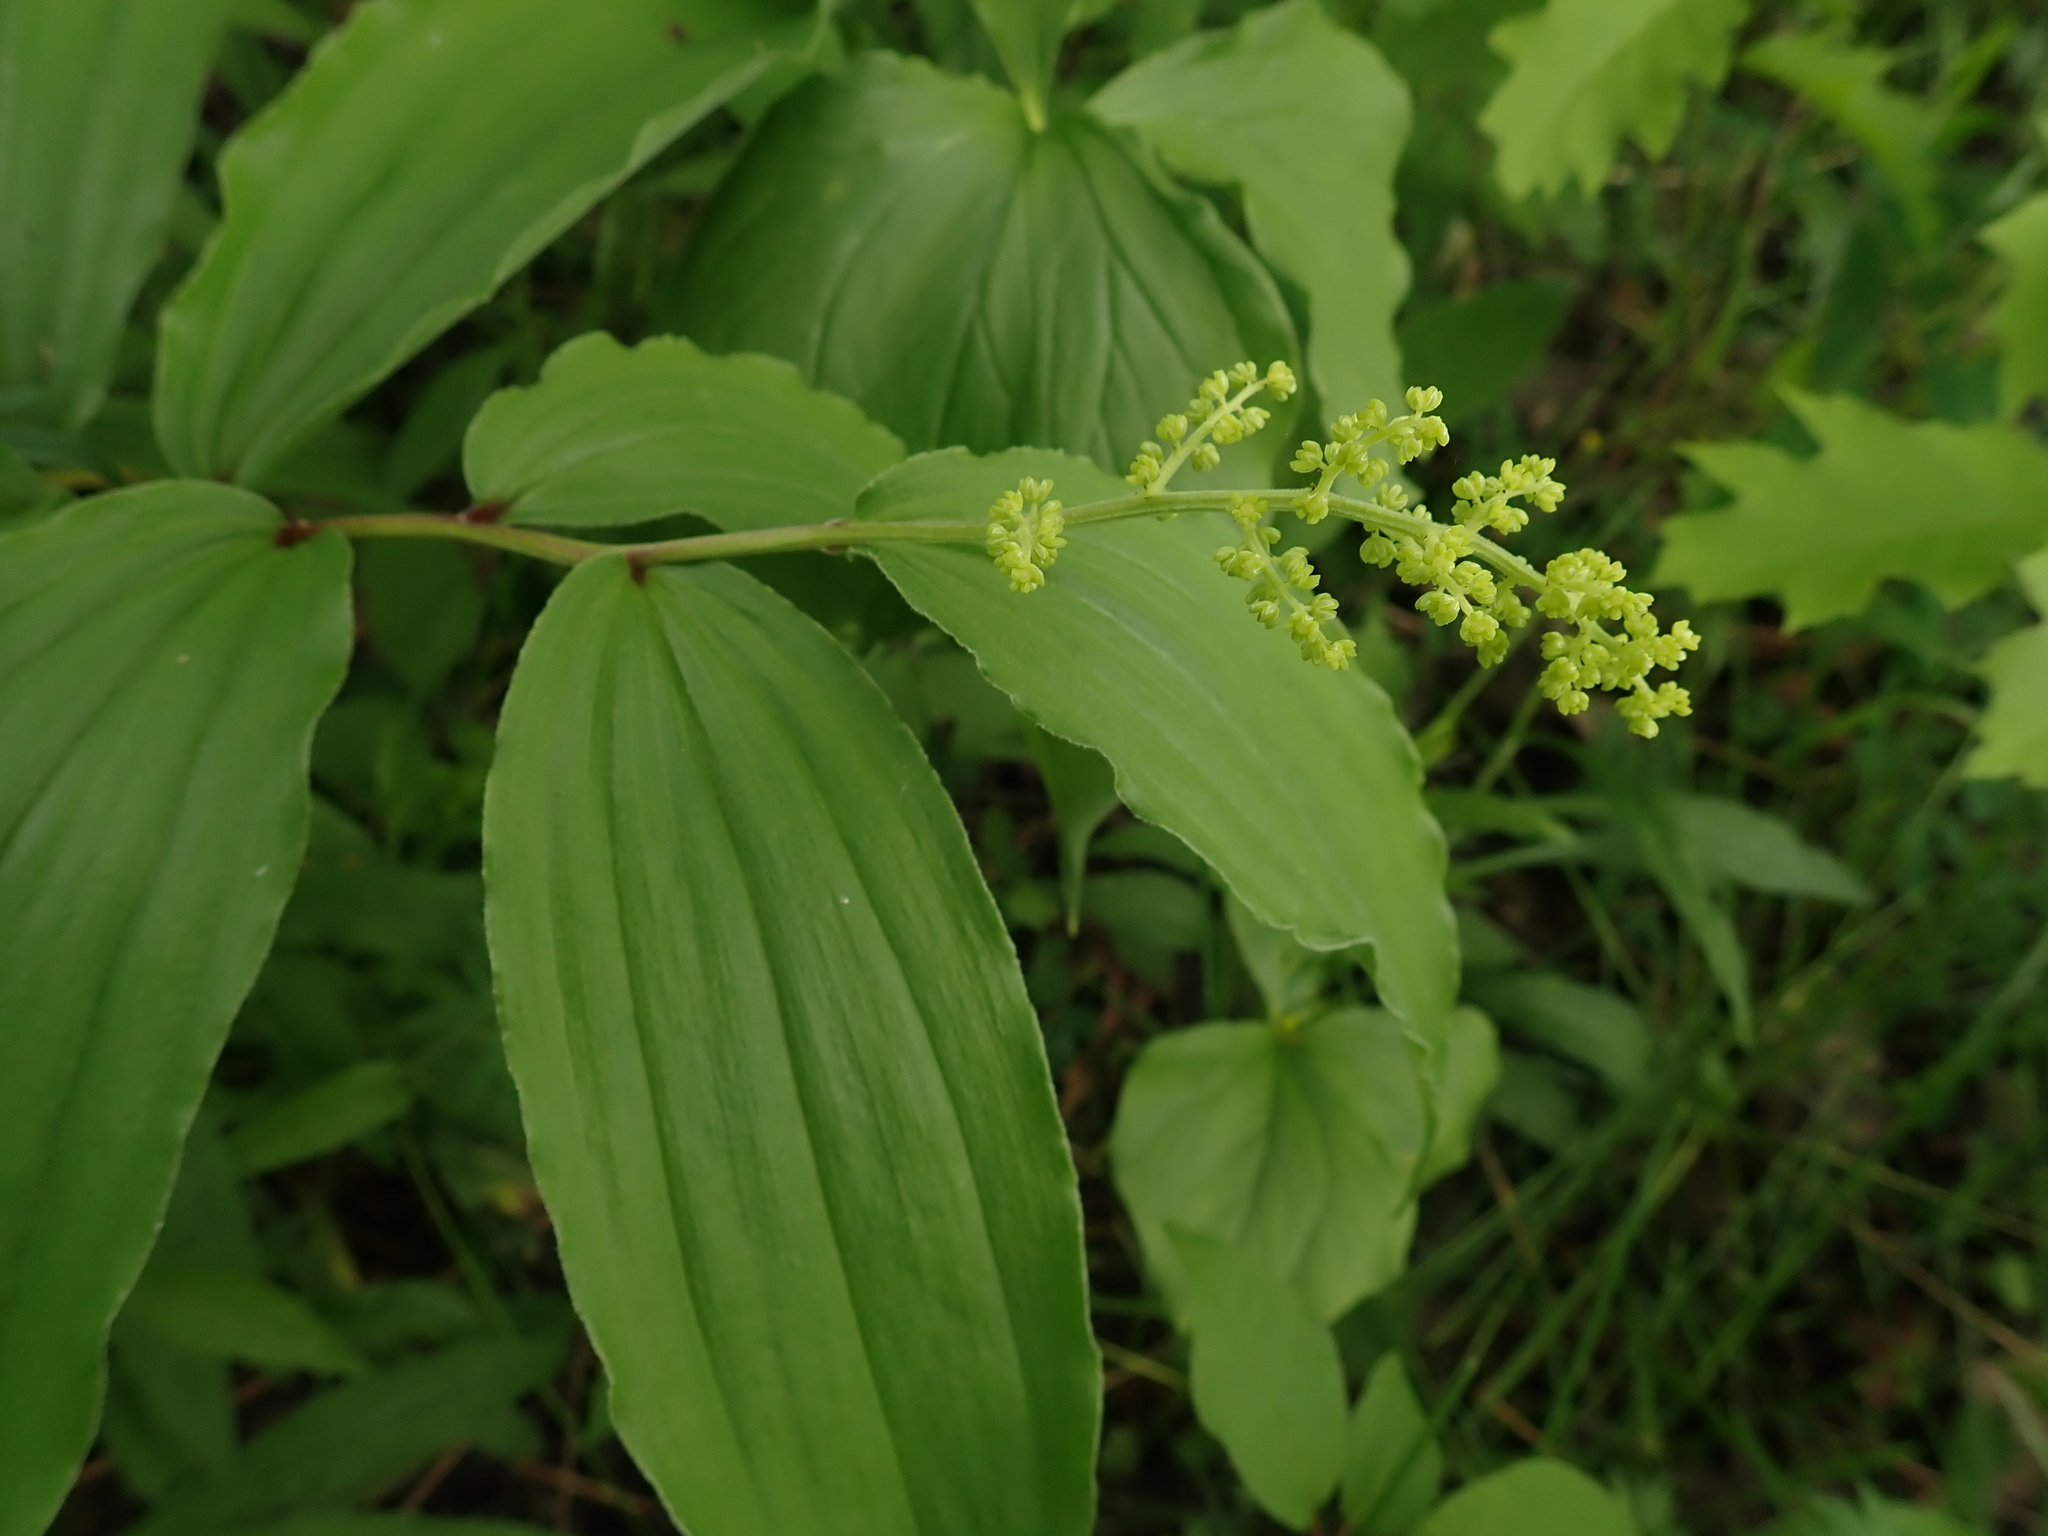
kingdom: Plantae
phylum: Tracheophyta
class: Liliopsida
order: Asparagales
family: Asparagaceae
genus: Maianthemum
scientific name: Maianthemum racemosum
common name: False spikenard
